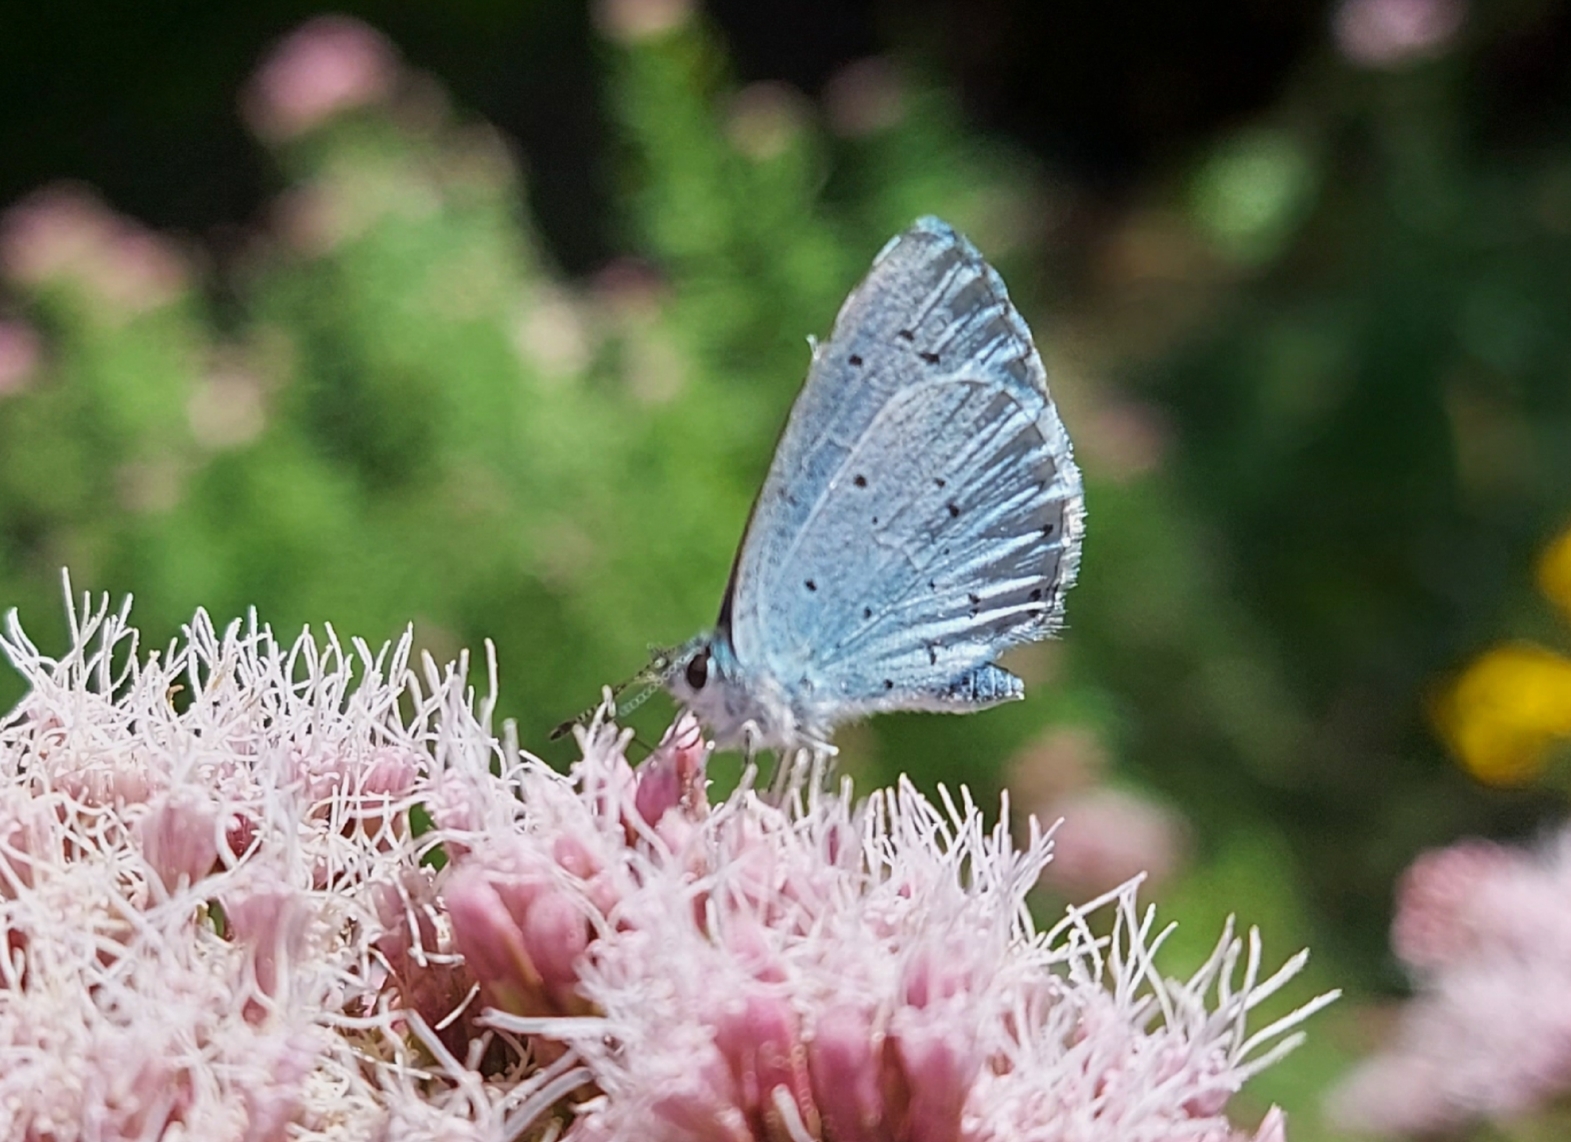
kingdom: Animalia
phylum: Arthropoda
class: Insecta
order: Lepidoptera
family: Lycaenidae
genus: Celastrina
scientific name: Celastrina argiolus
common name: Holly blue
